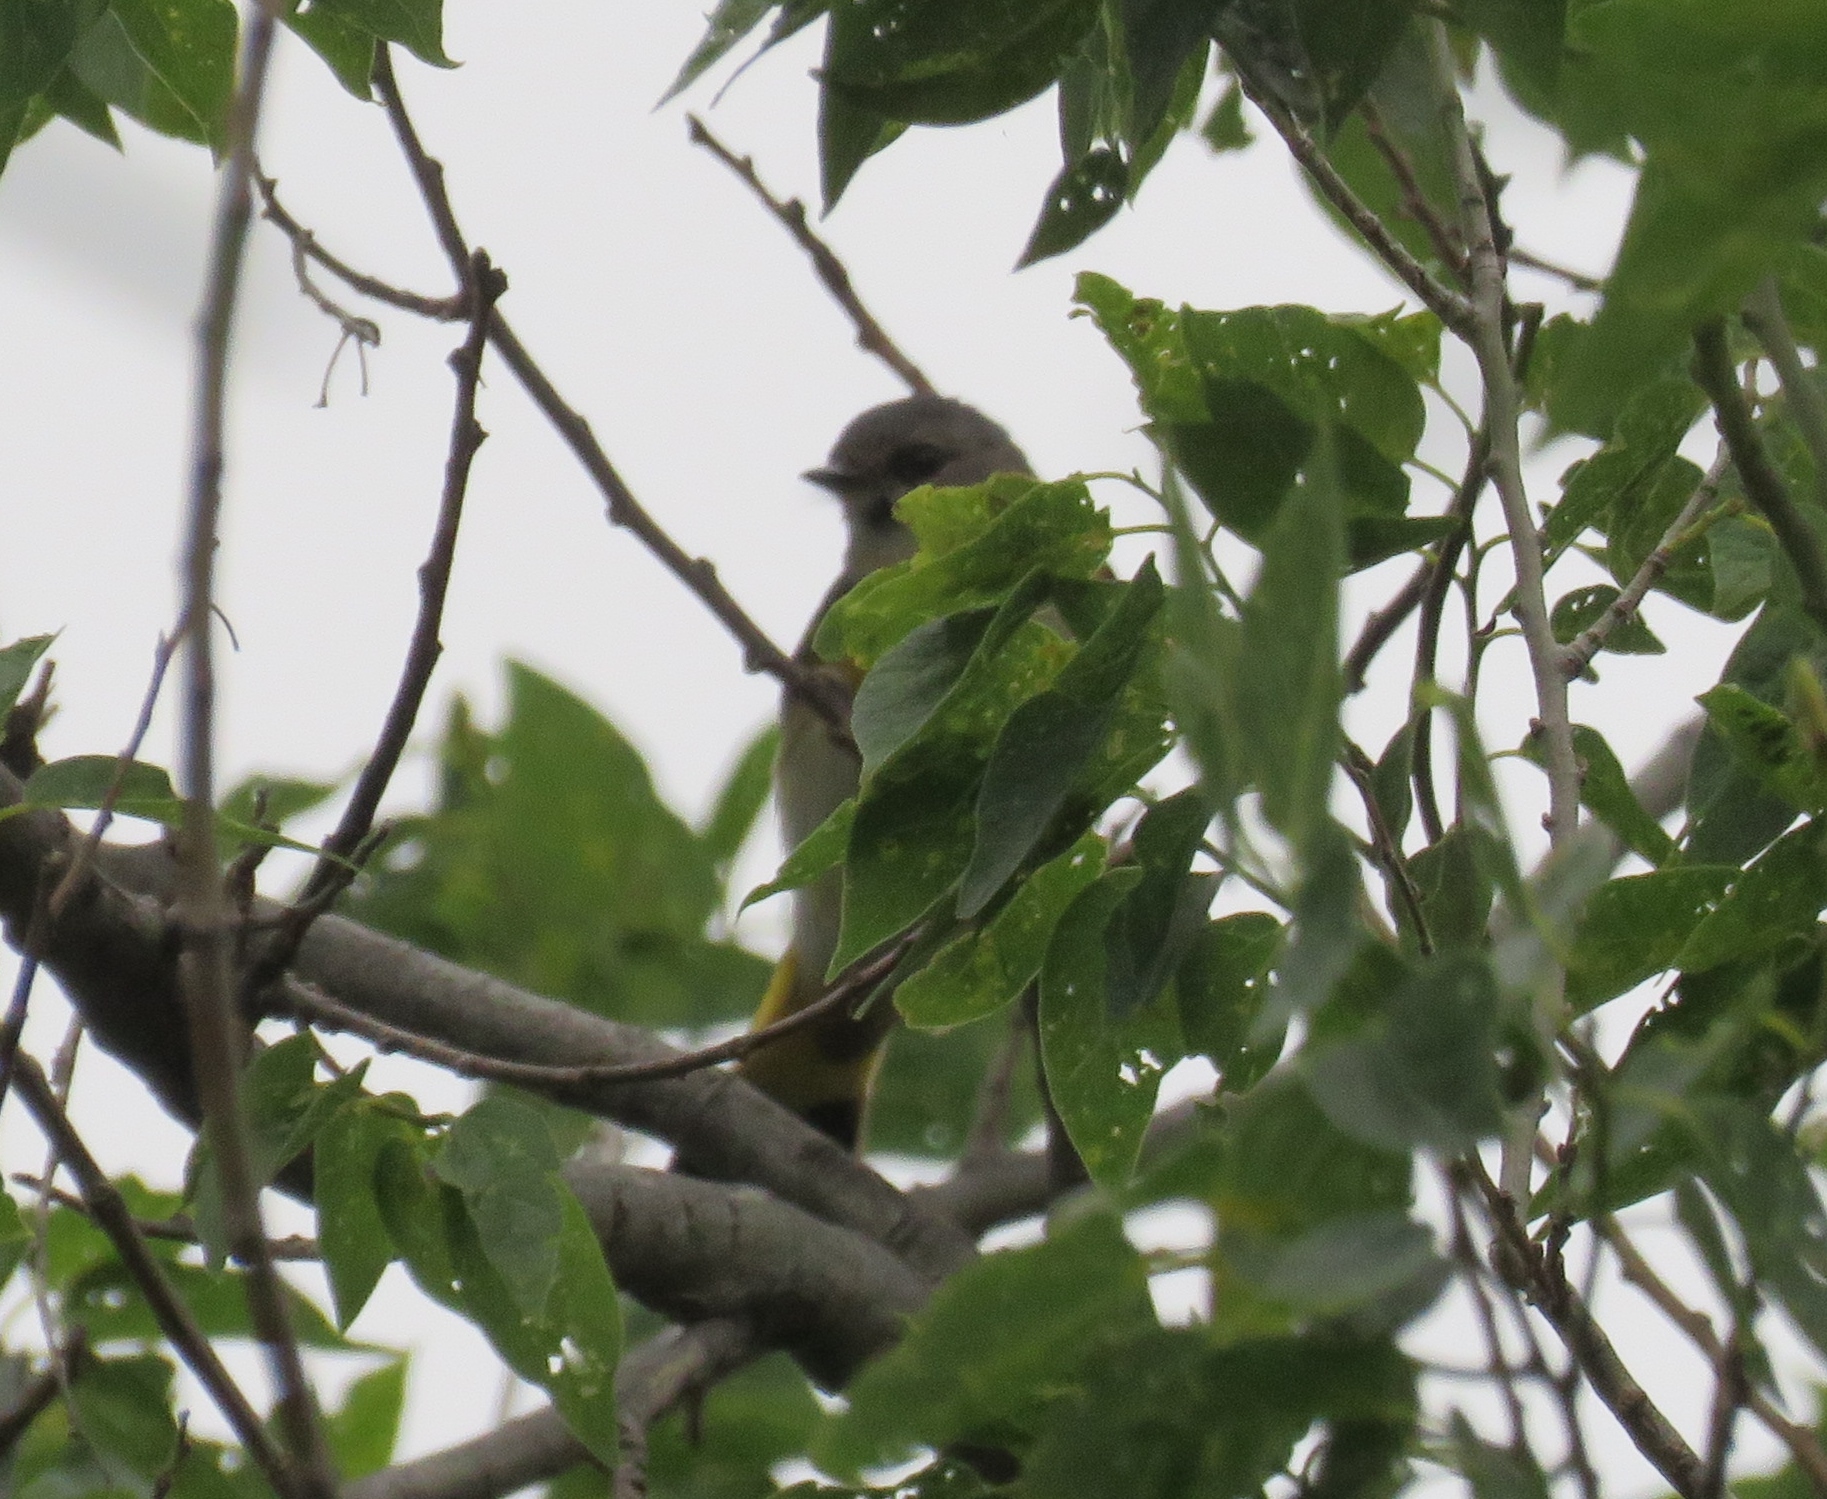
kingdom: Animalia
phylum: Chordata
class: Aves
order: Passeriformes
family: Parulidae
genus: Setophaga
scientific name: Setophaga ruticilla
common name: American redstart
